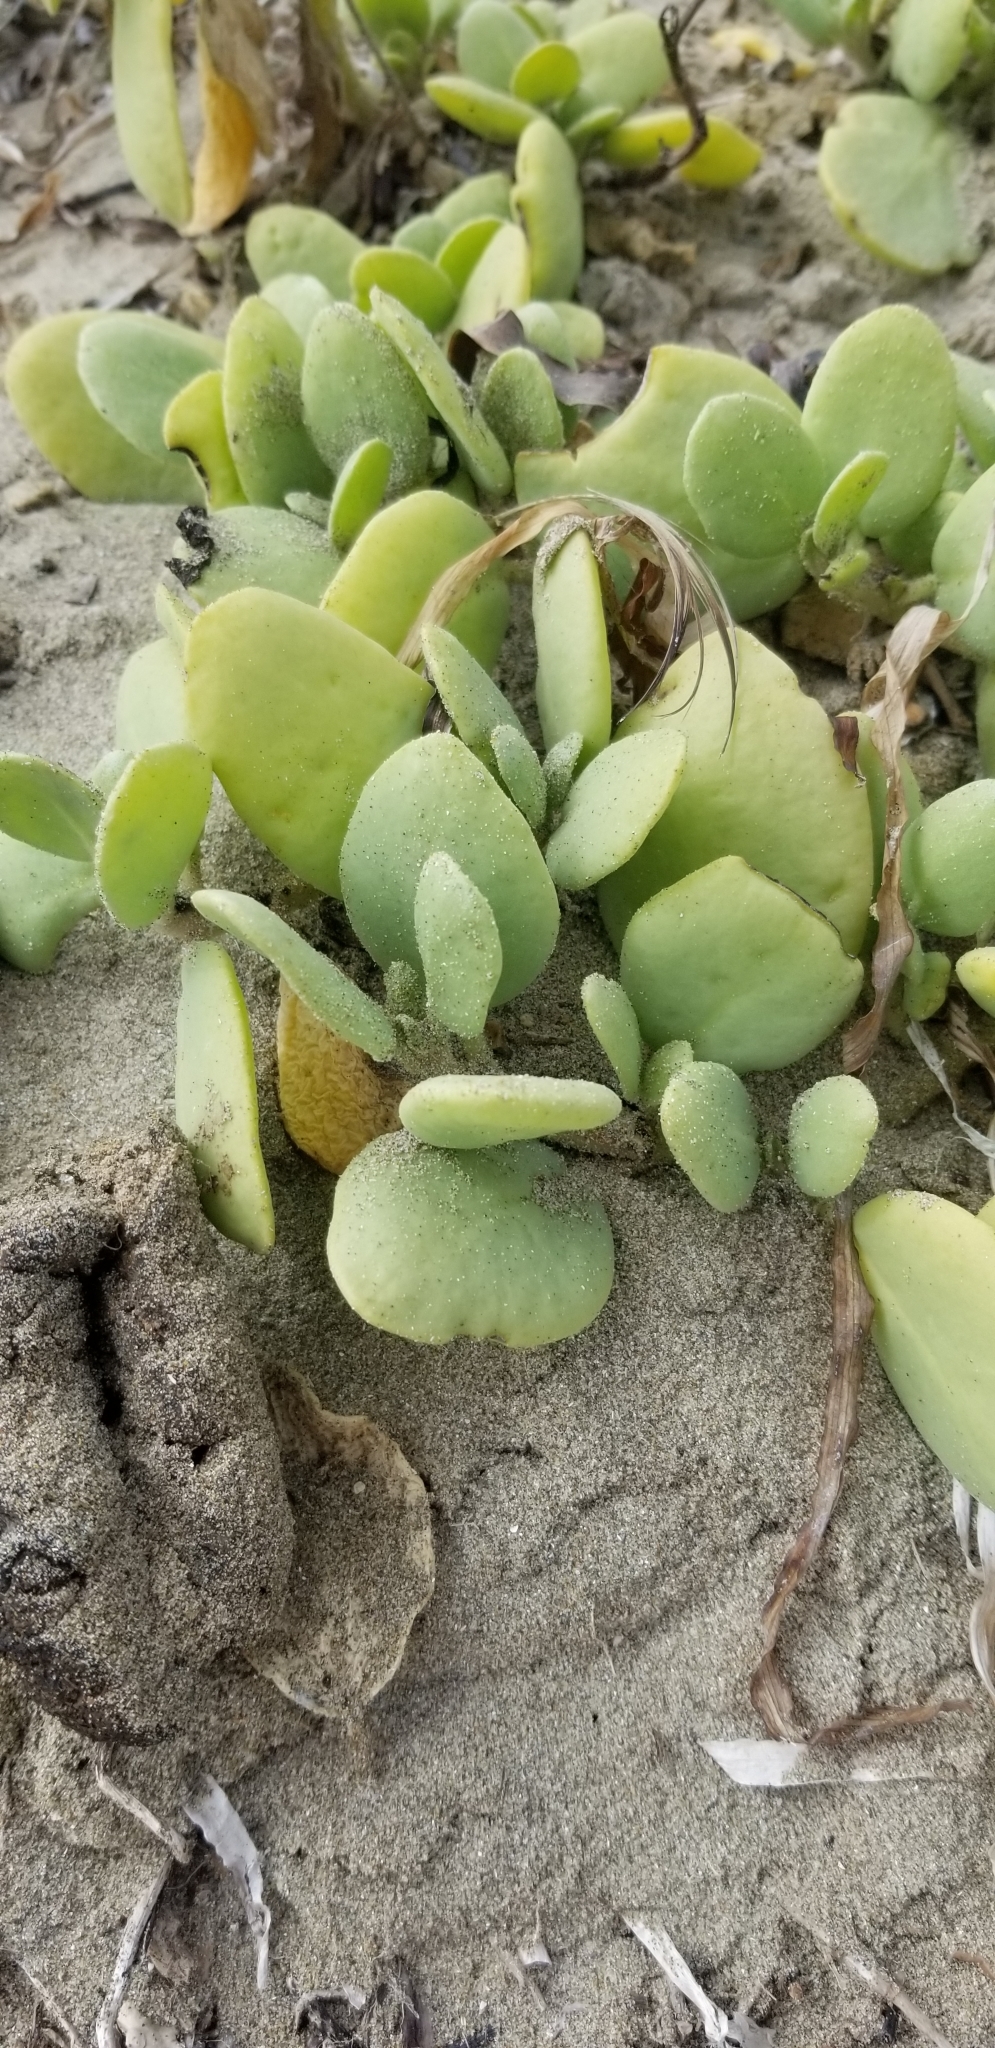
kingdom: Plantae
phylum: Tracheophyta
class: Magnoliopsida
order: Caryophyllales
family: Nyctaginaceae
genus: Abronia
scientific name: Abronia maritima
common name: Red sand-verbena
